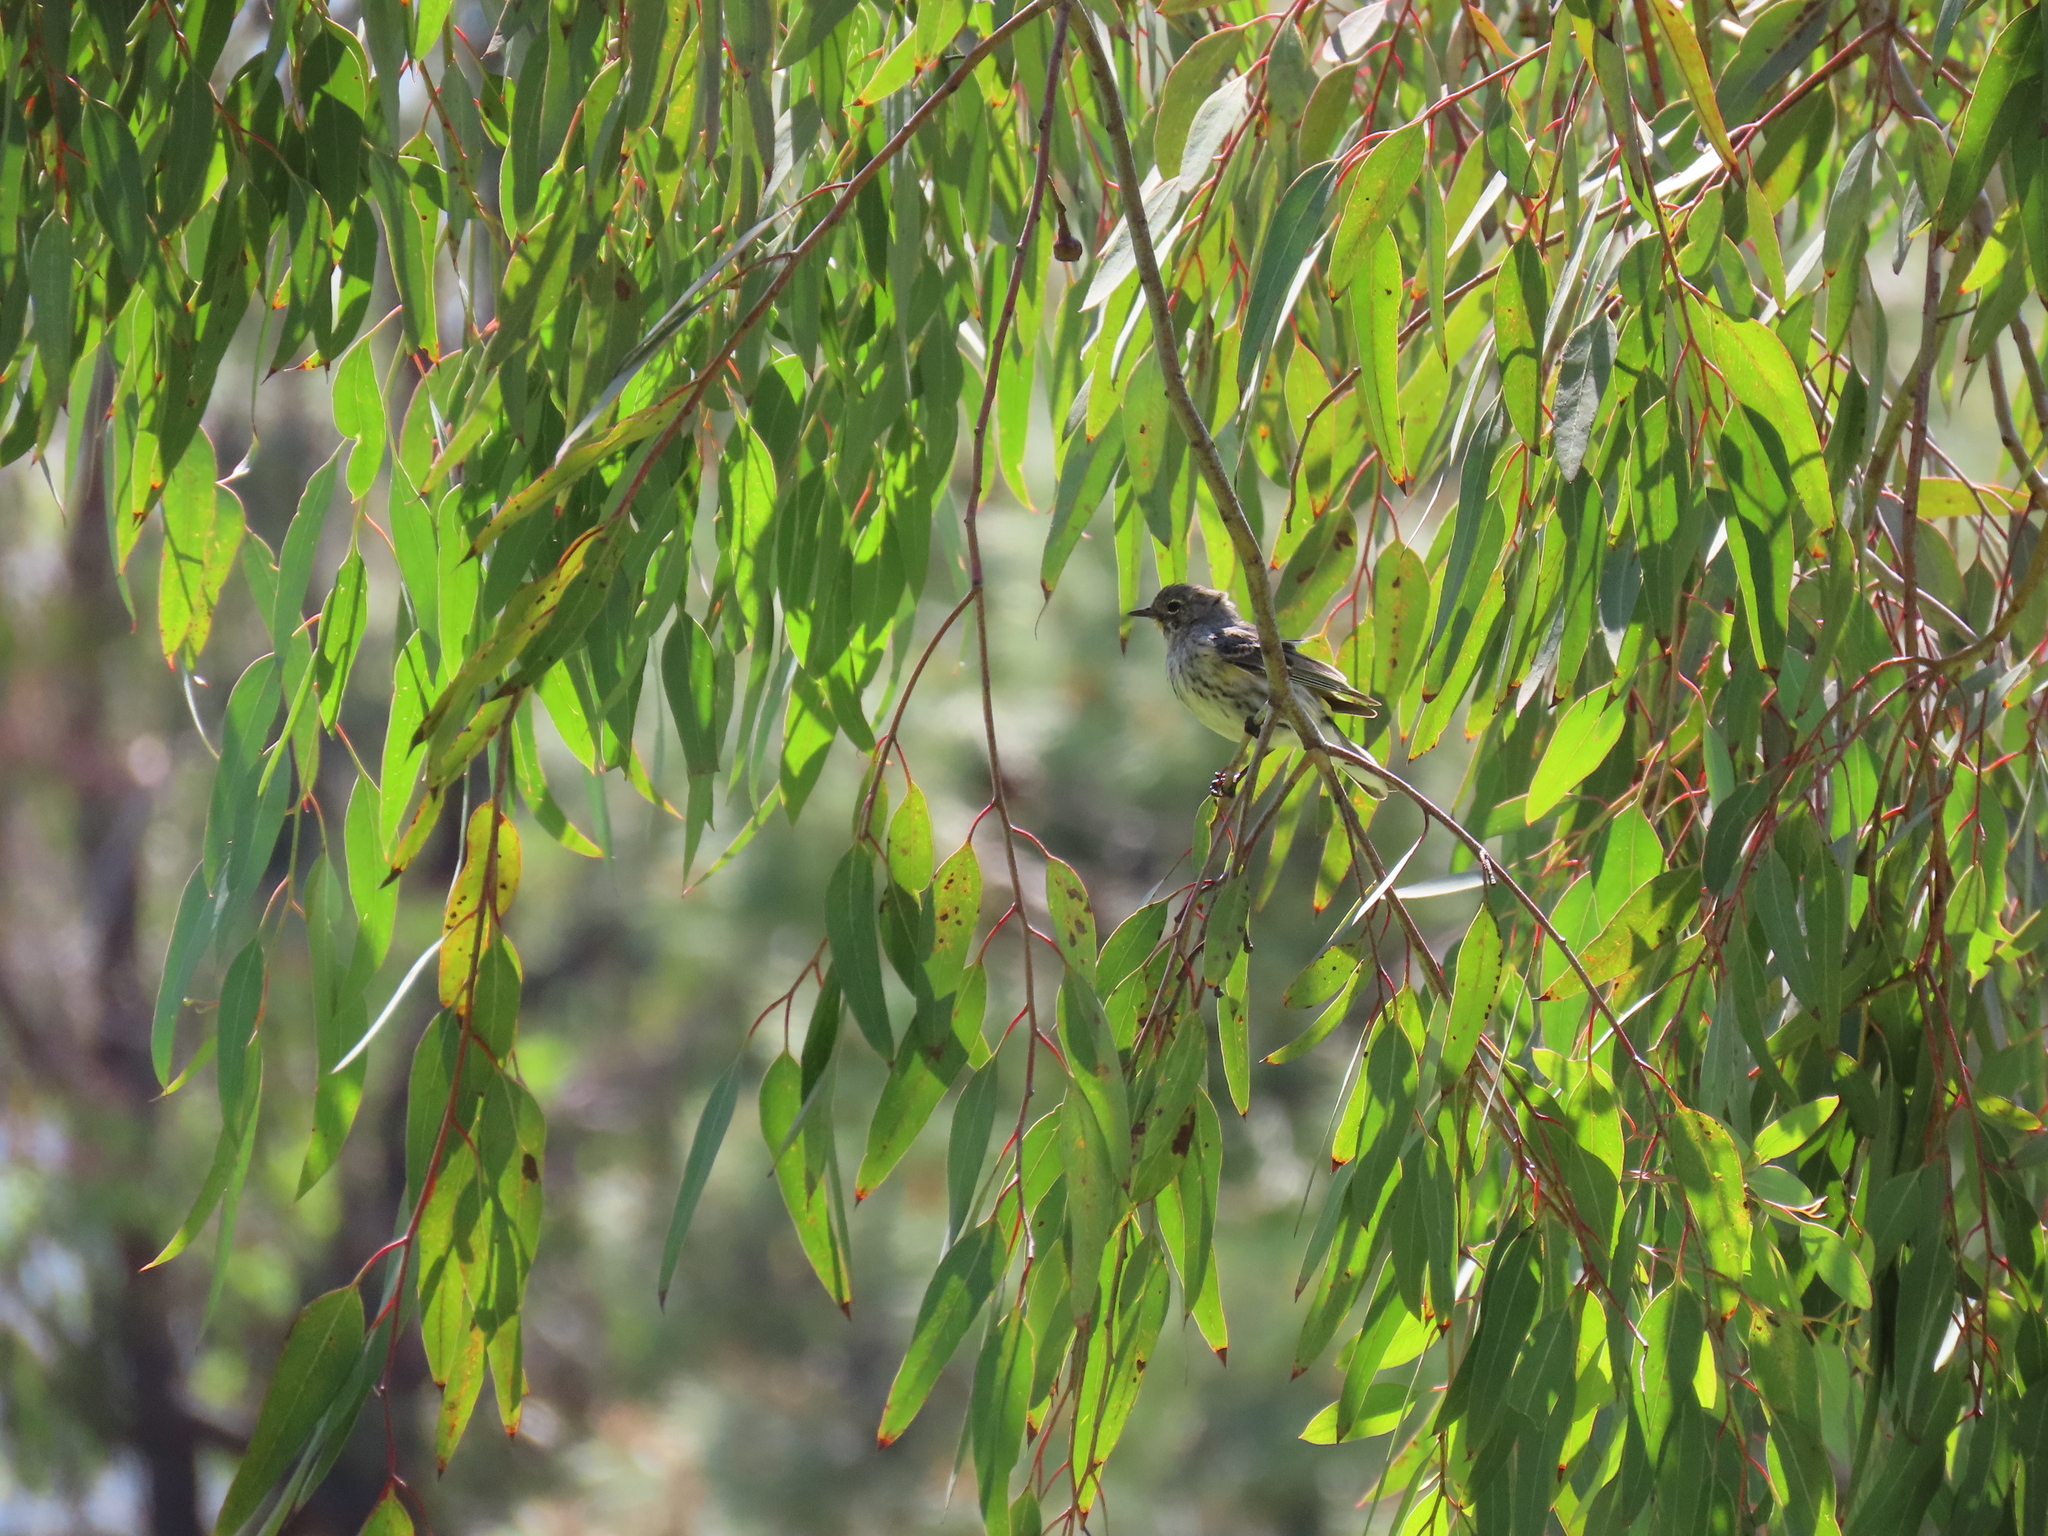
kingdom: Animalia
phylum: Chordata
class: Aves
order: Passeriformes
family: Parulidae
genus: Setophaga
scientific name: Setophaga coronata
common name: Myrtle warbler
